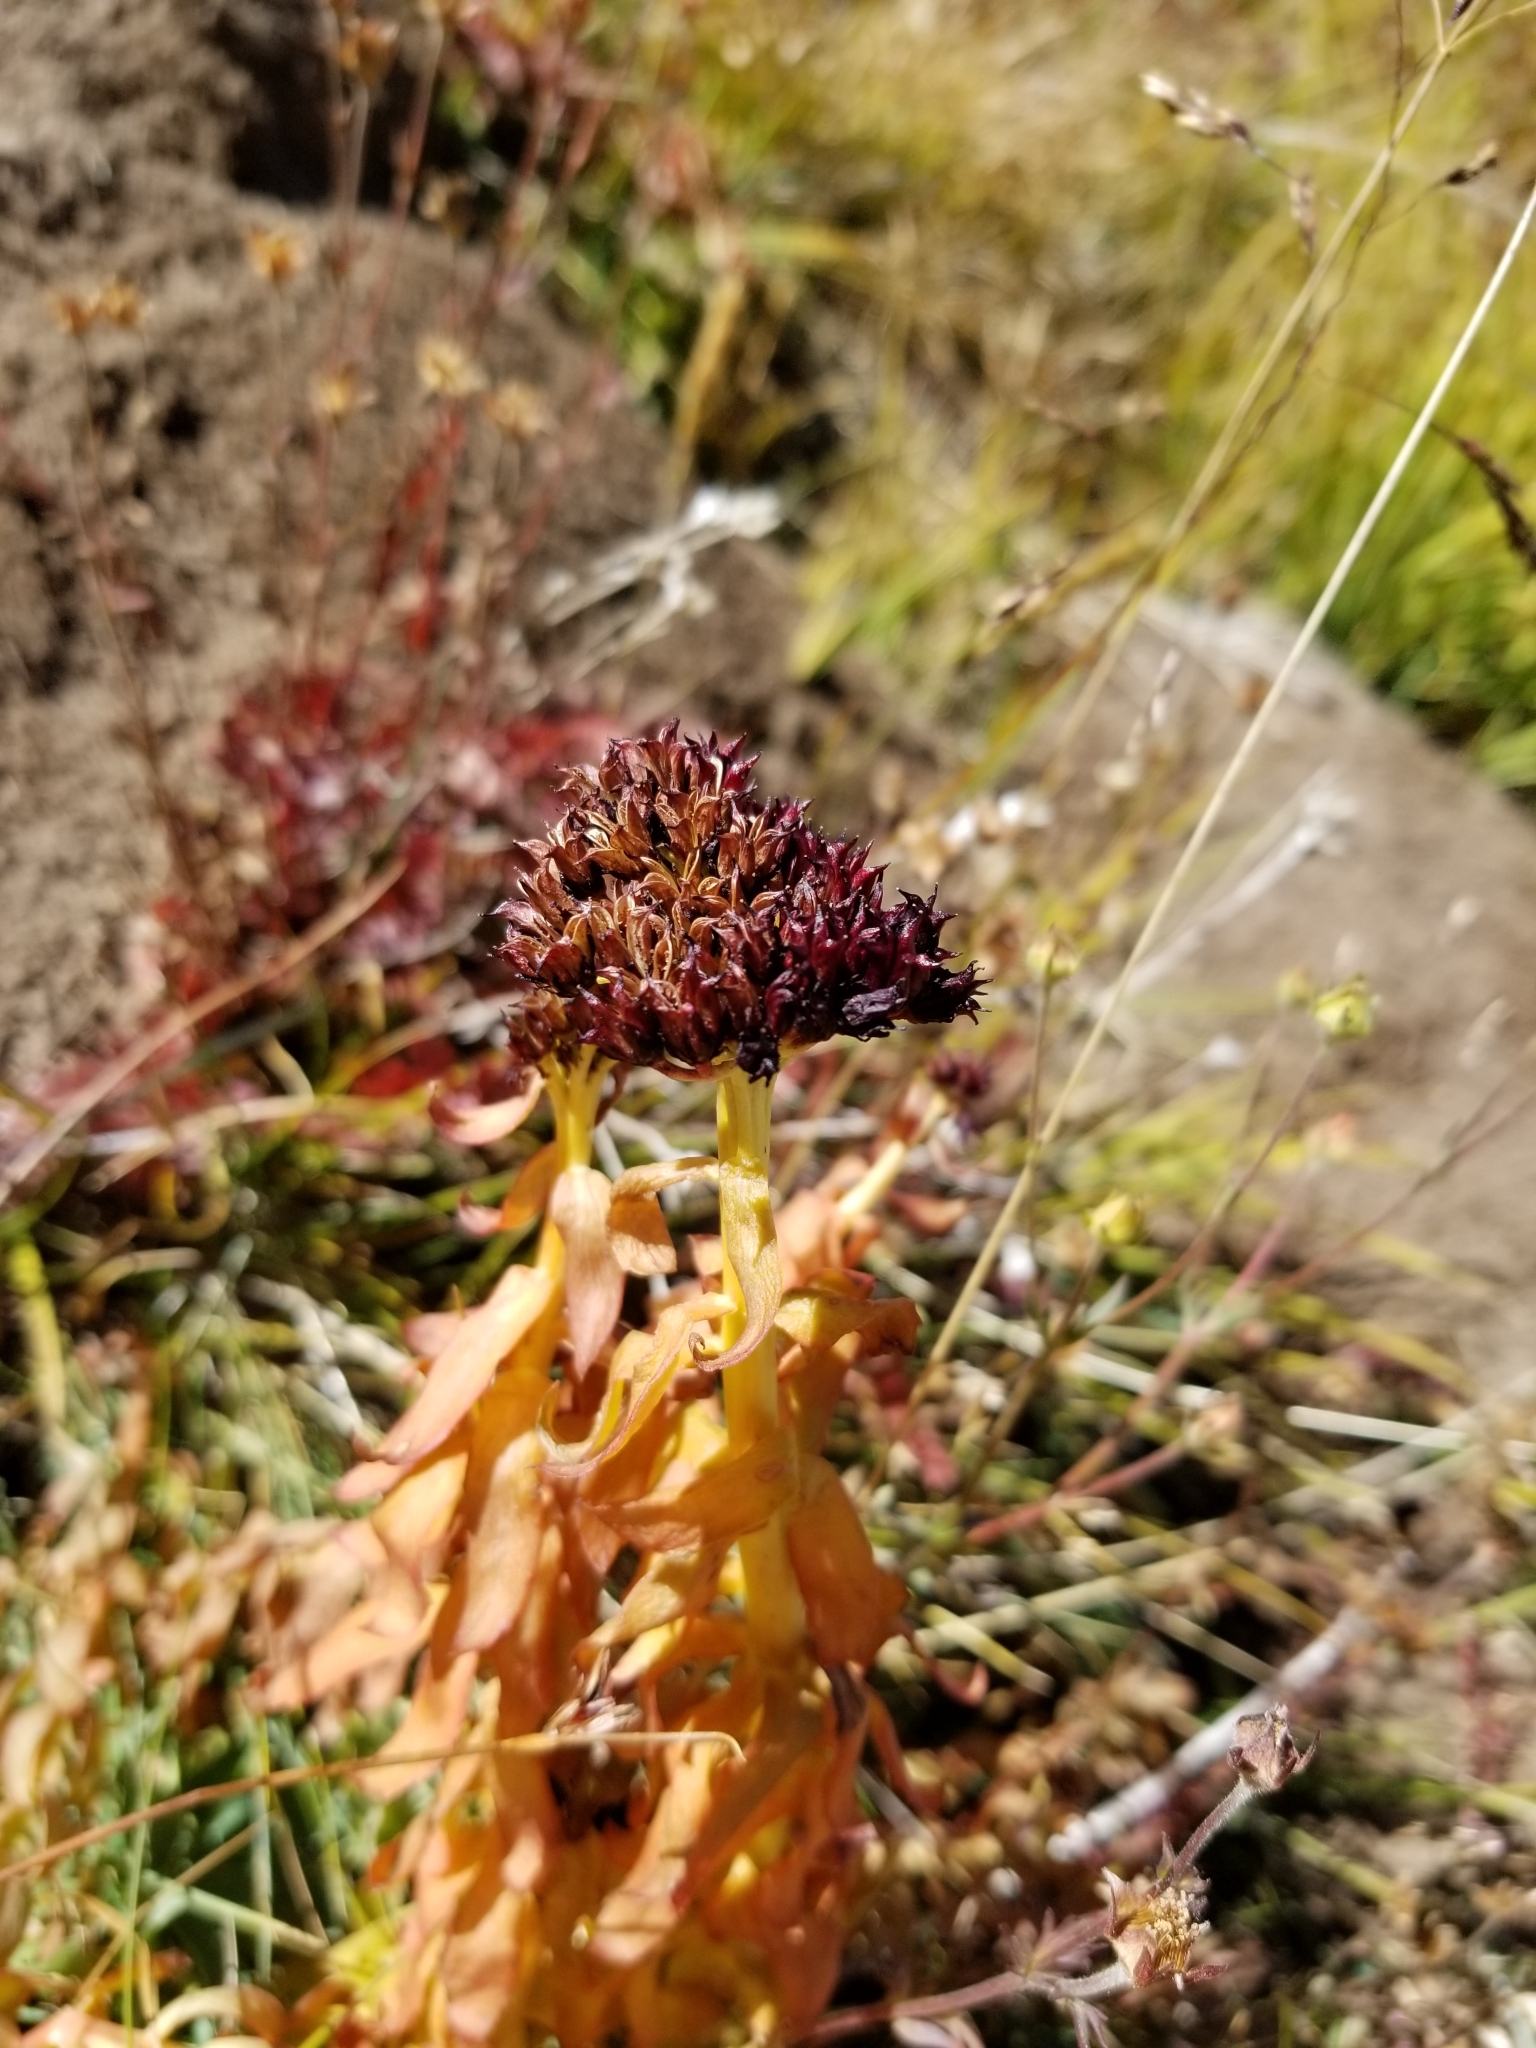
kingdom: Plantae
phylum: Tracheophyta
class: Magnoliopsida
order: Saxifragales
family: Crassulaceae
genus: Rhodiola
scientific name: Rhodiola integrifolia
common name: Western roseroot
